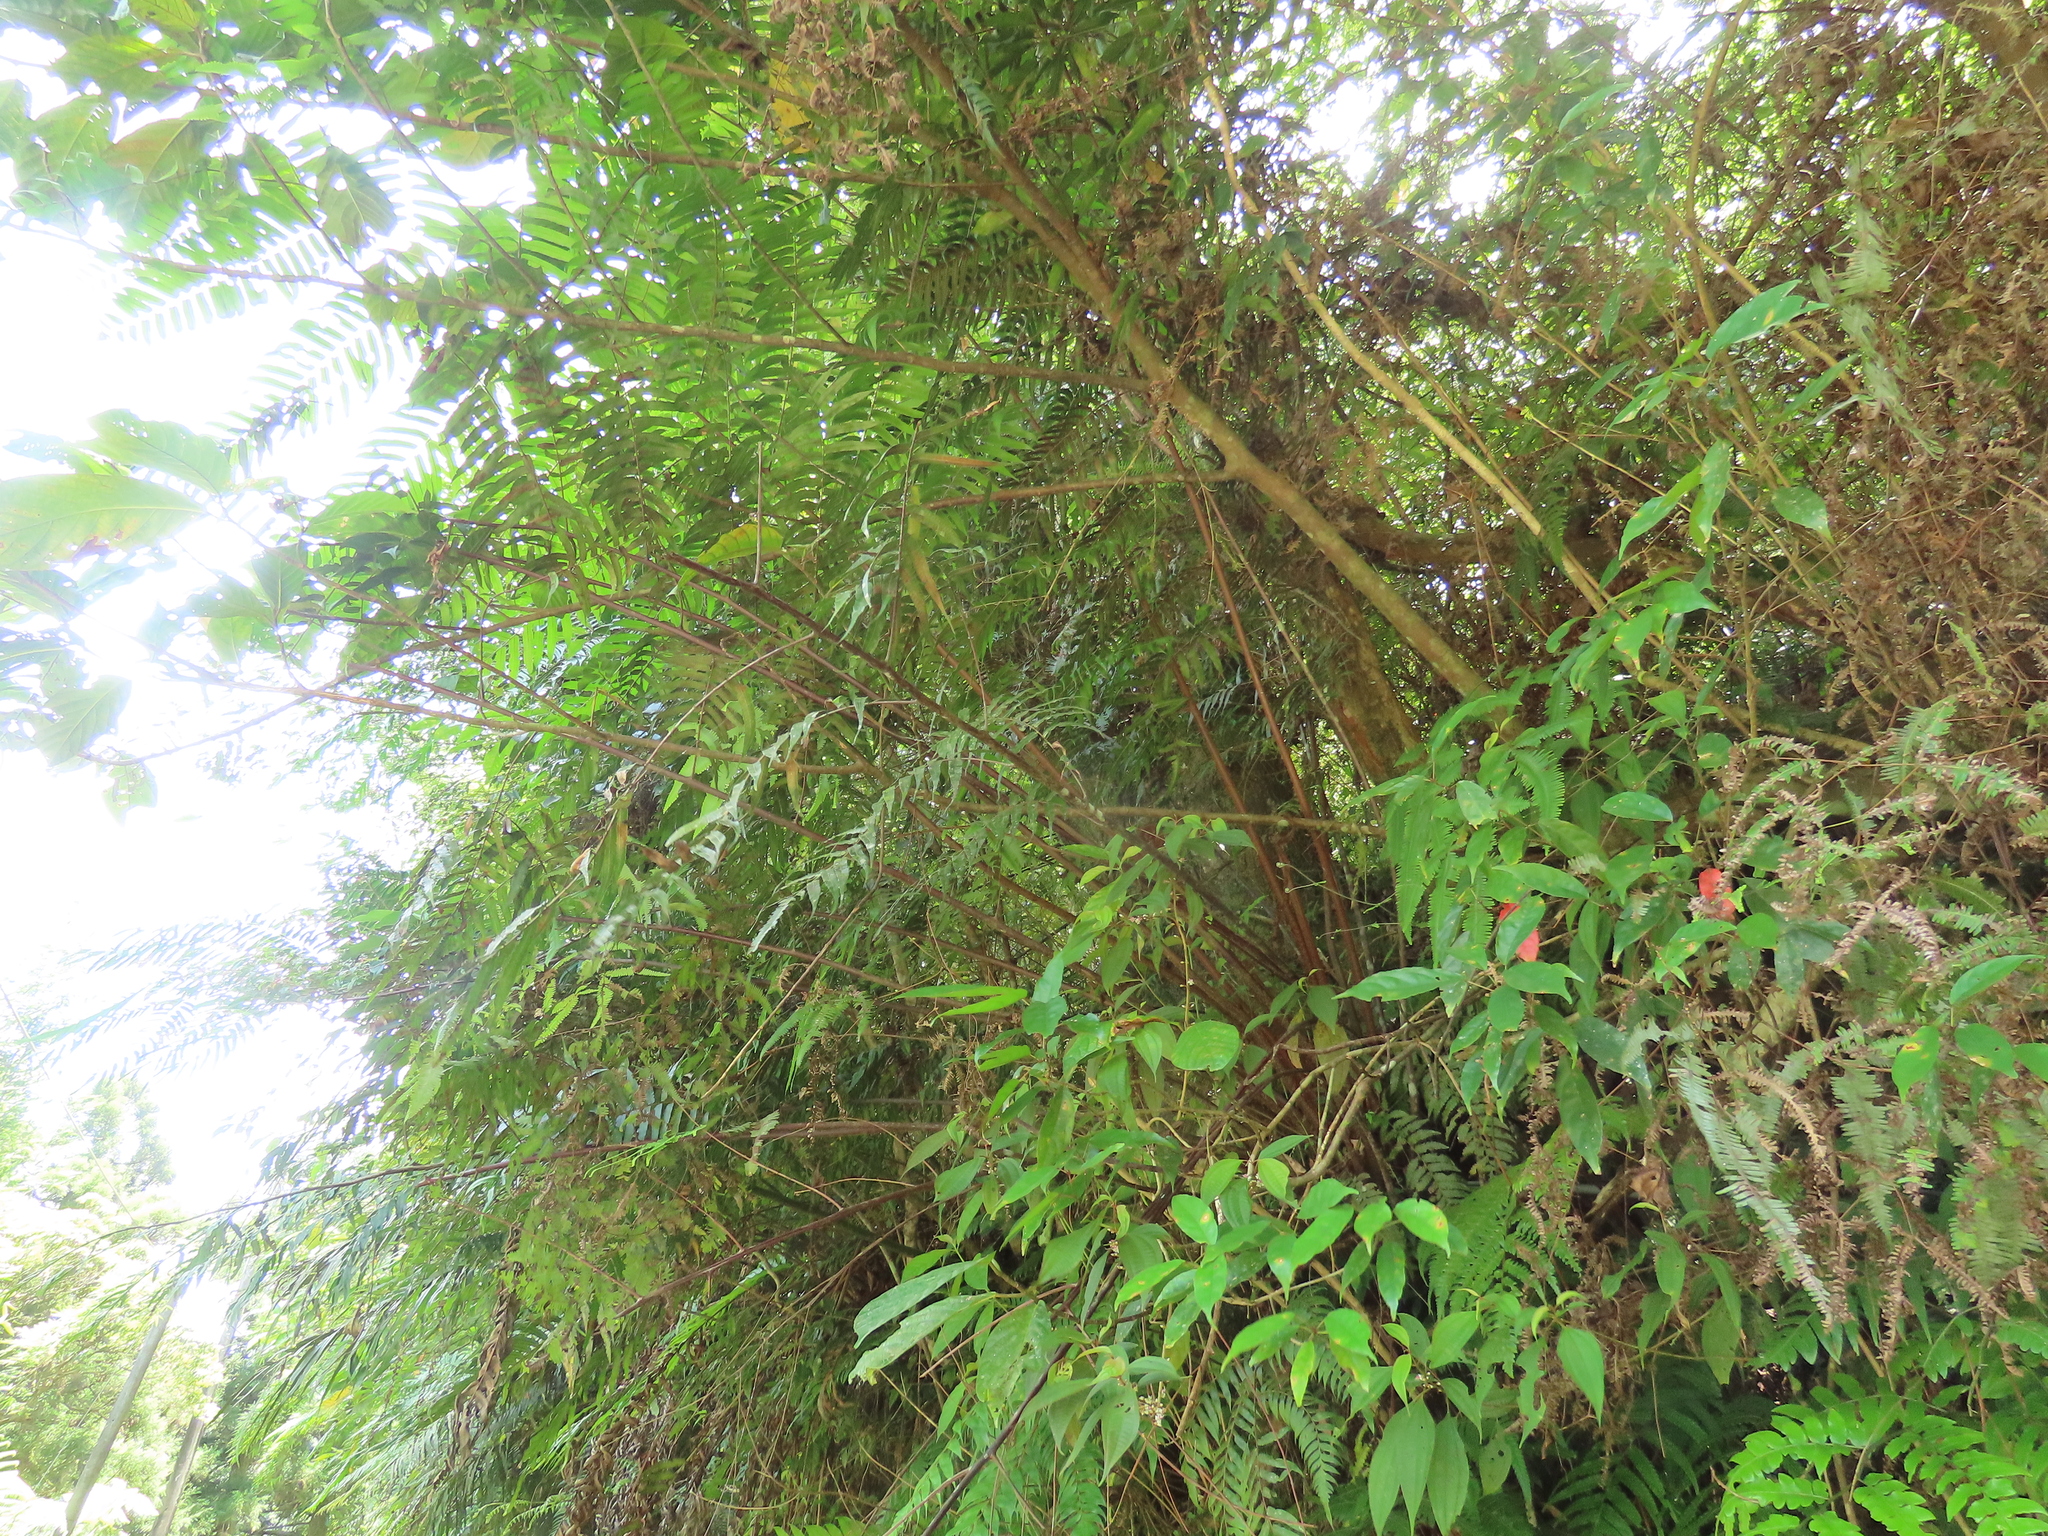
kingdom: Plantae
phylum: Tracheophyta
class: Polypodiopsida
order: Cyatheales
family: Cyatheaceae
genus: Gymnosphaera
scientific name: Gymnosphaera podophylla
